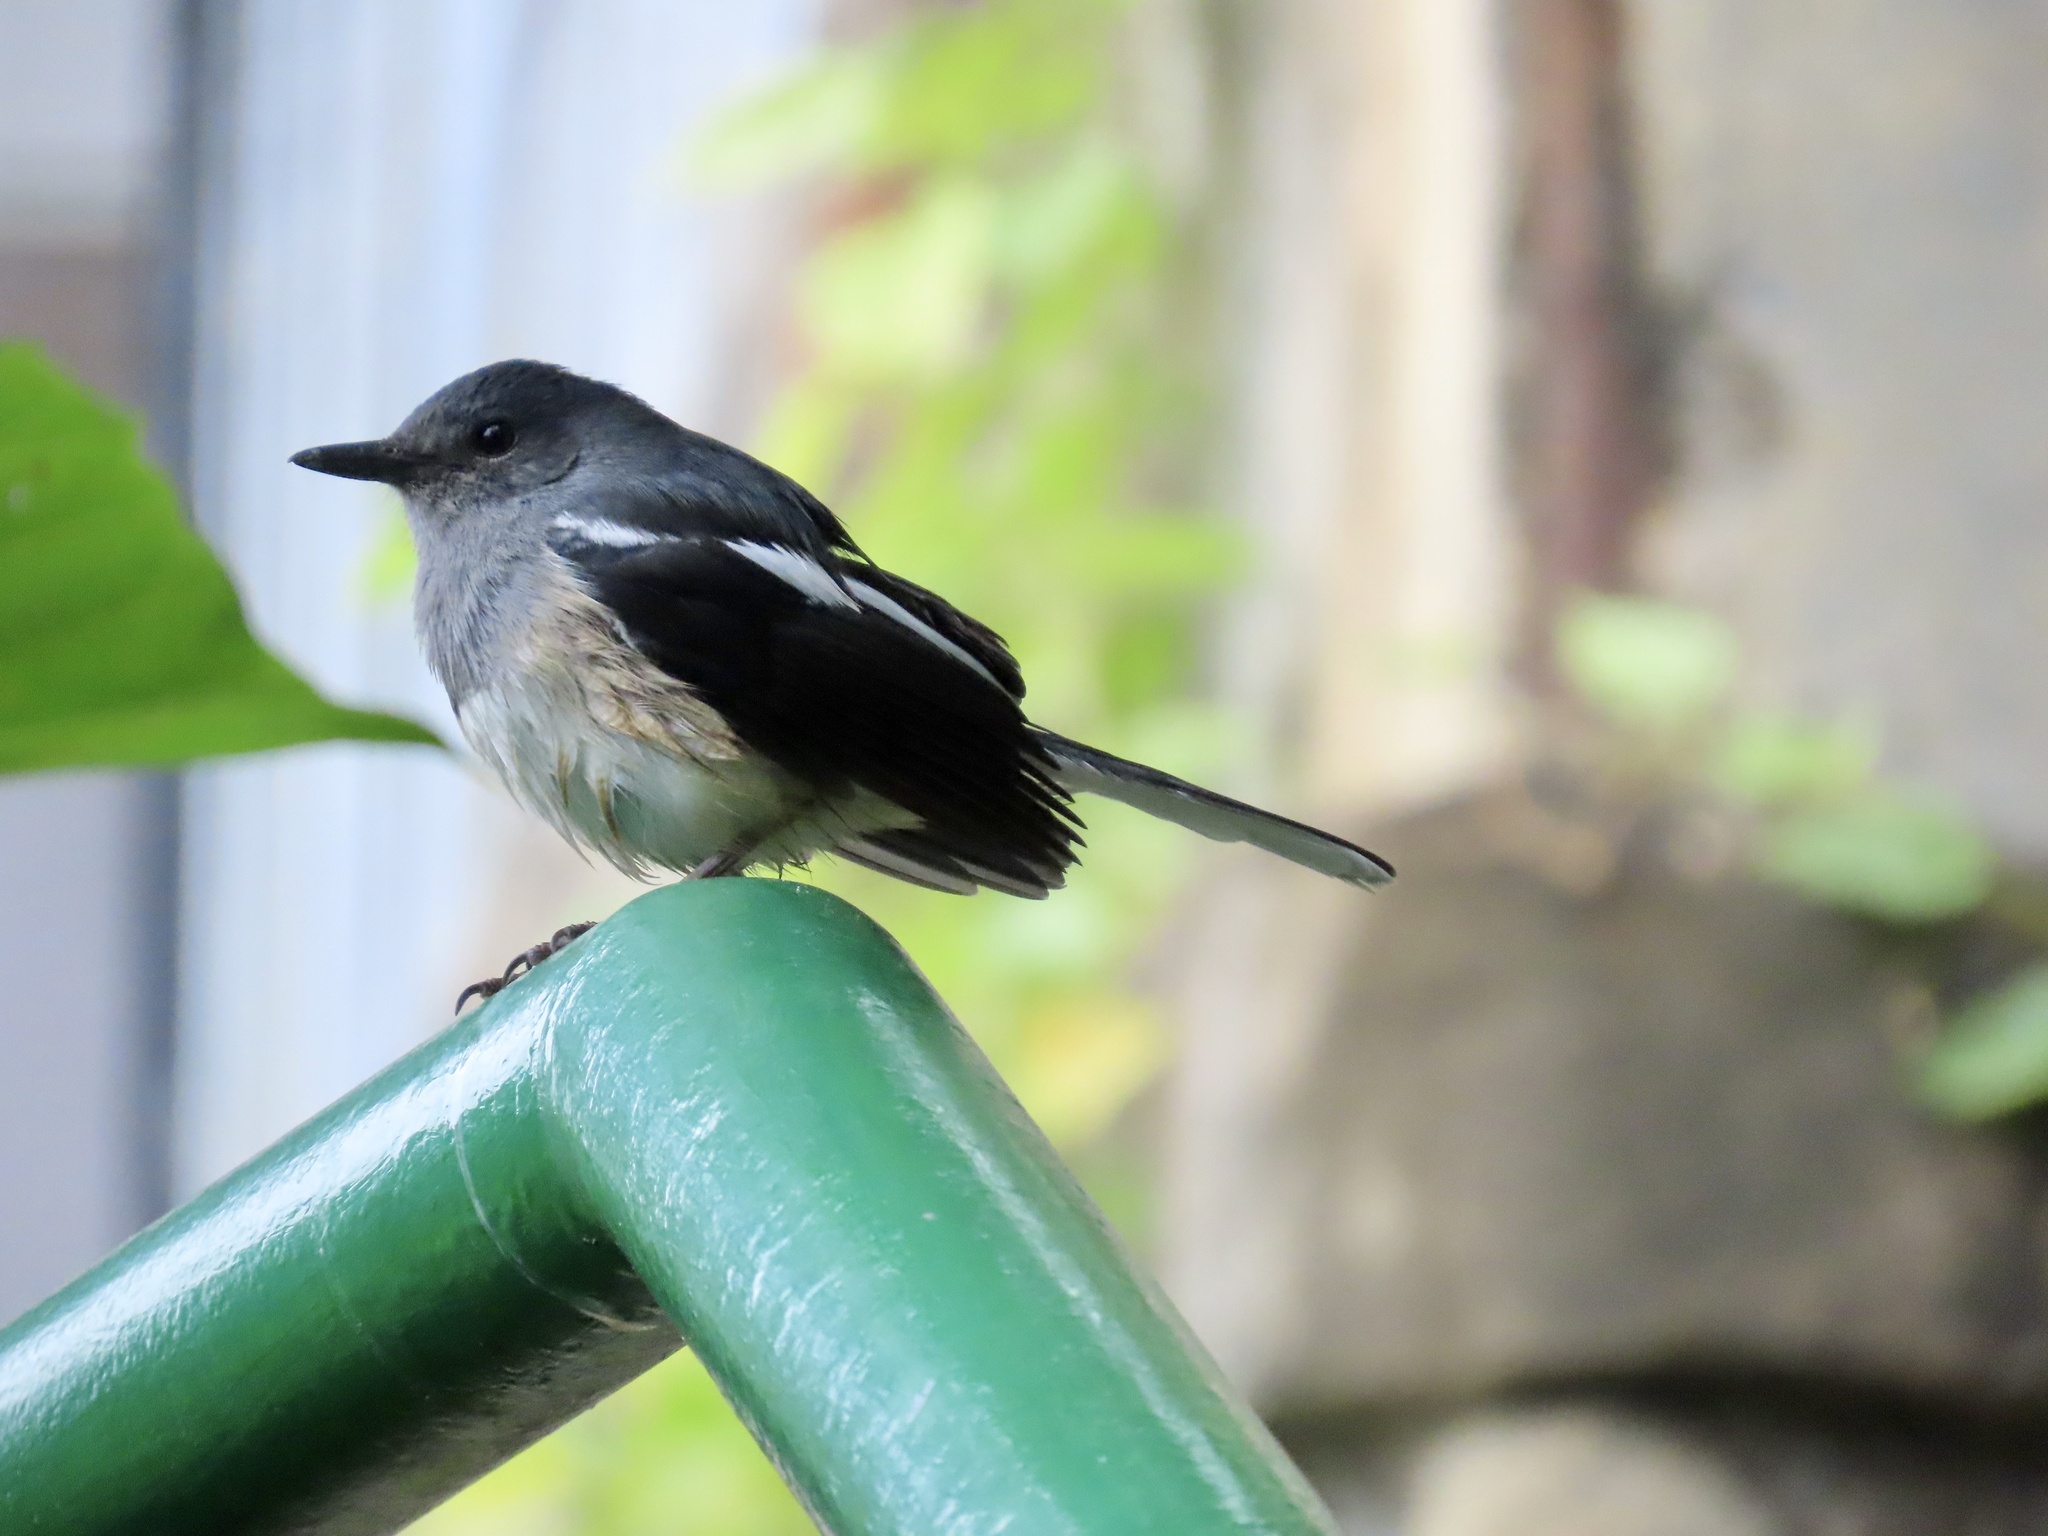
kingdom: Animalia
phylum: Chordata
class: Aves
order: Passeriformes
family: Muscicapidae
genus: Copsychus
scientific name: Copsychus saularis
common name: Oriental magpie-robin
